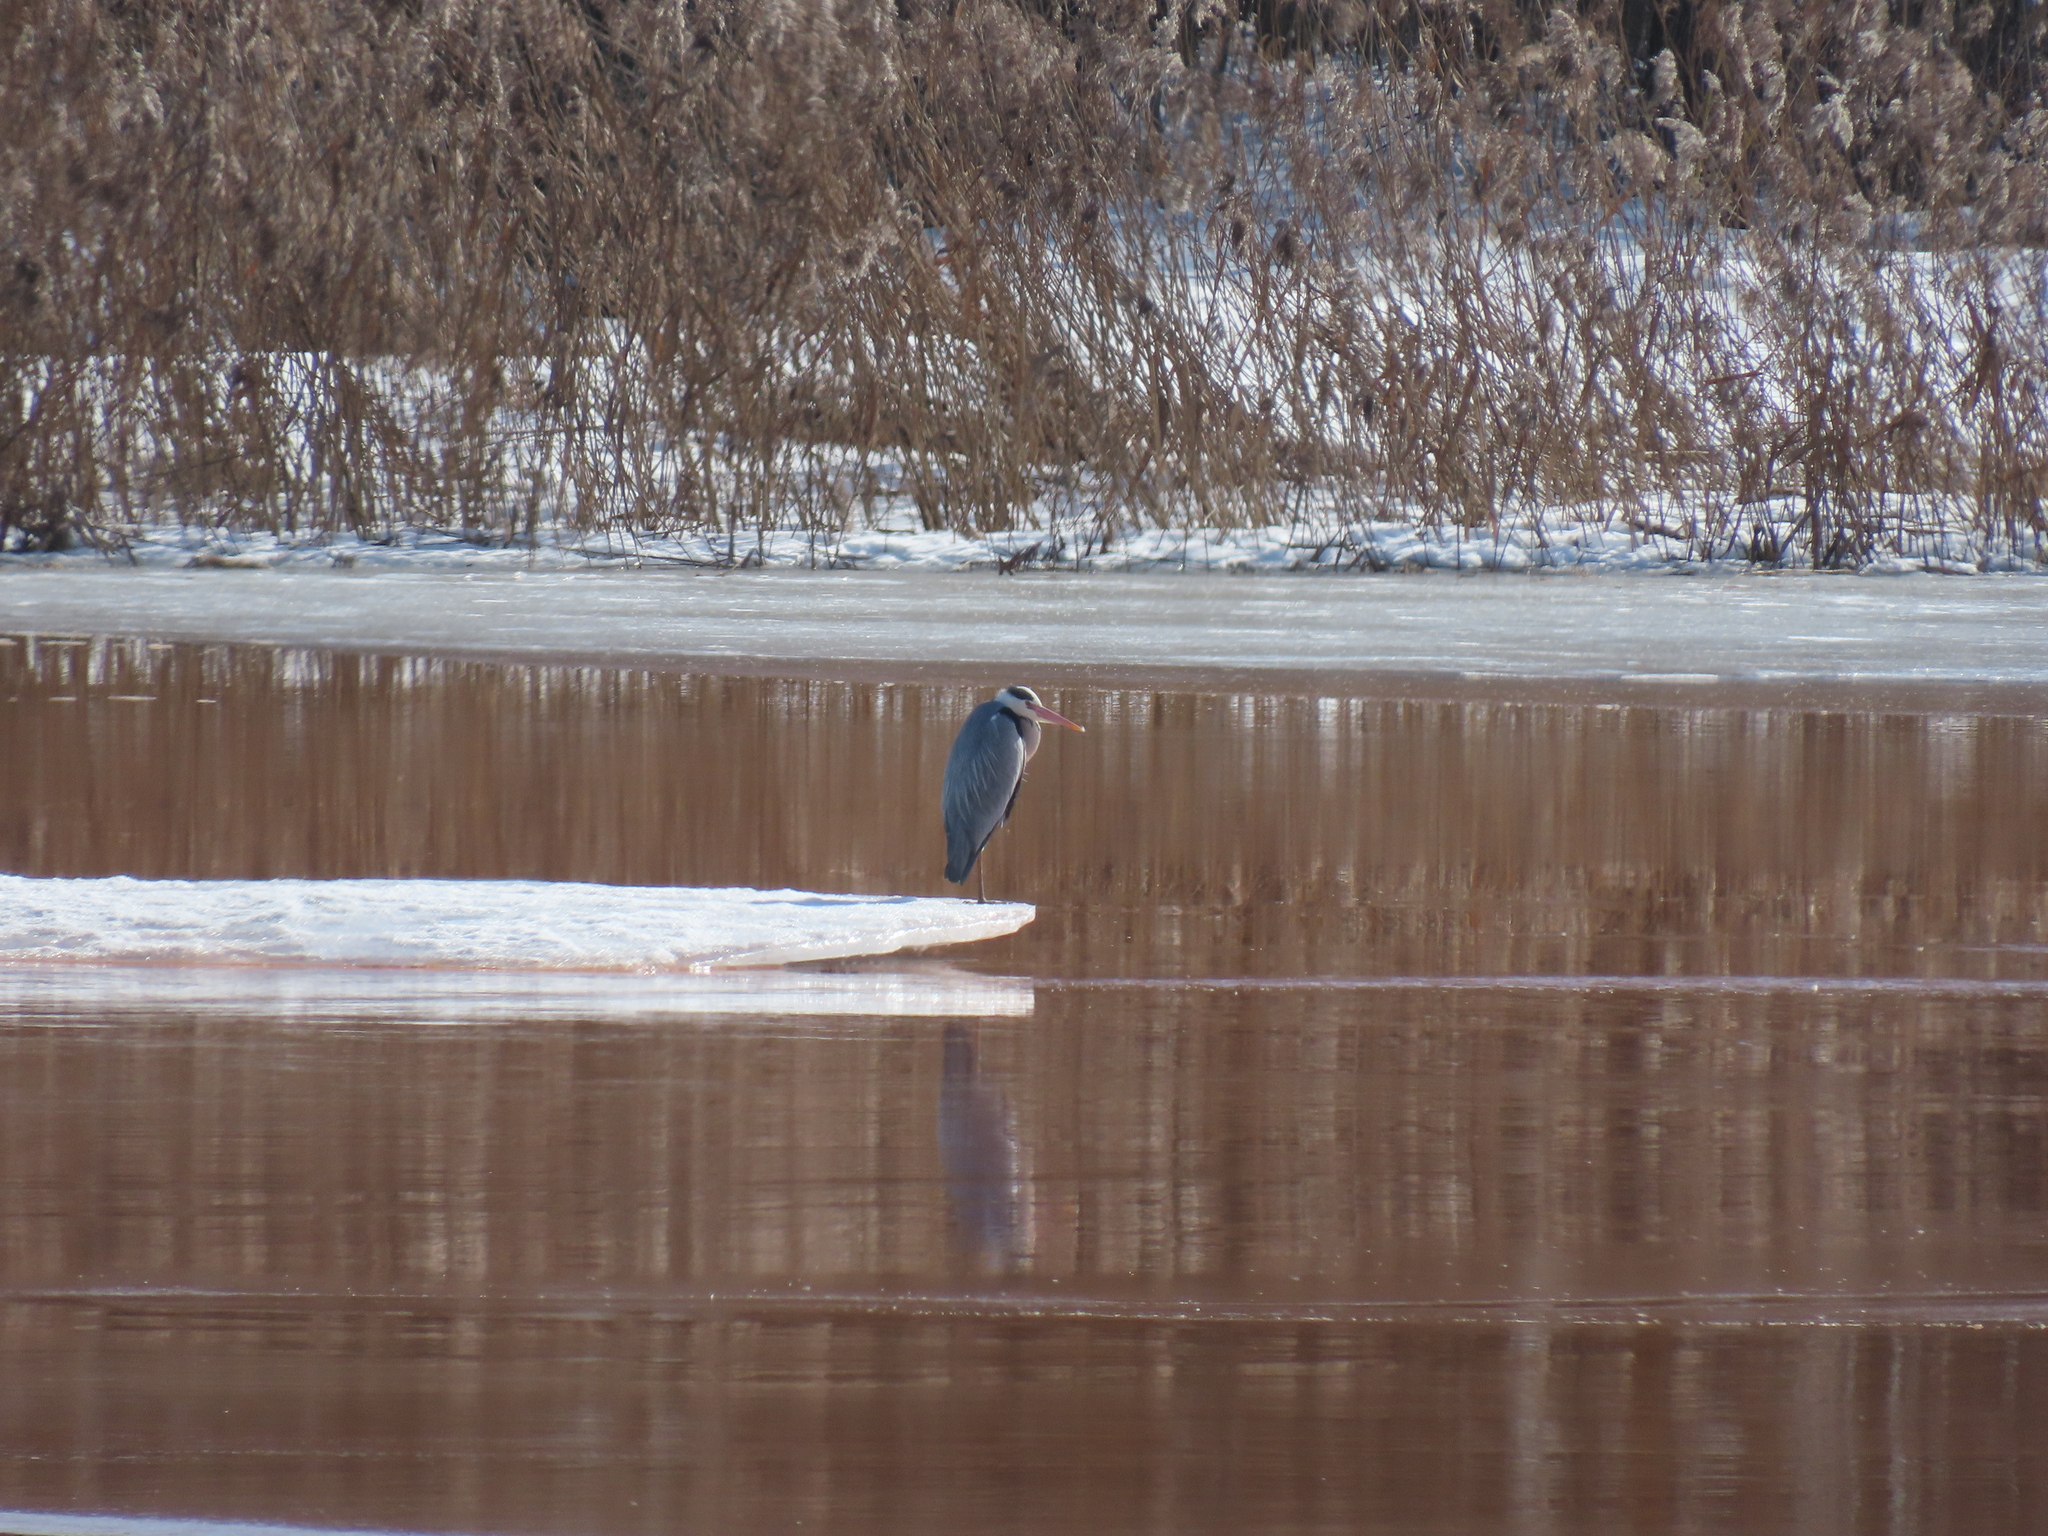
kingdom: Animalia
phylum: Chordata
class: Aves
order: Pelecaniformes
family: Ardeidae
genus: Ardea
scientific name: Ardea cinerea
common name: Grey heron
